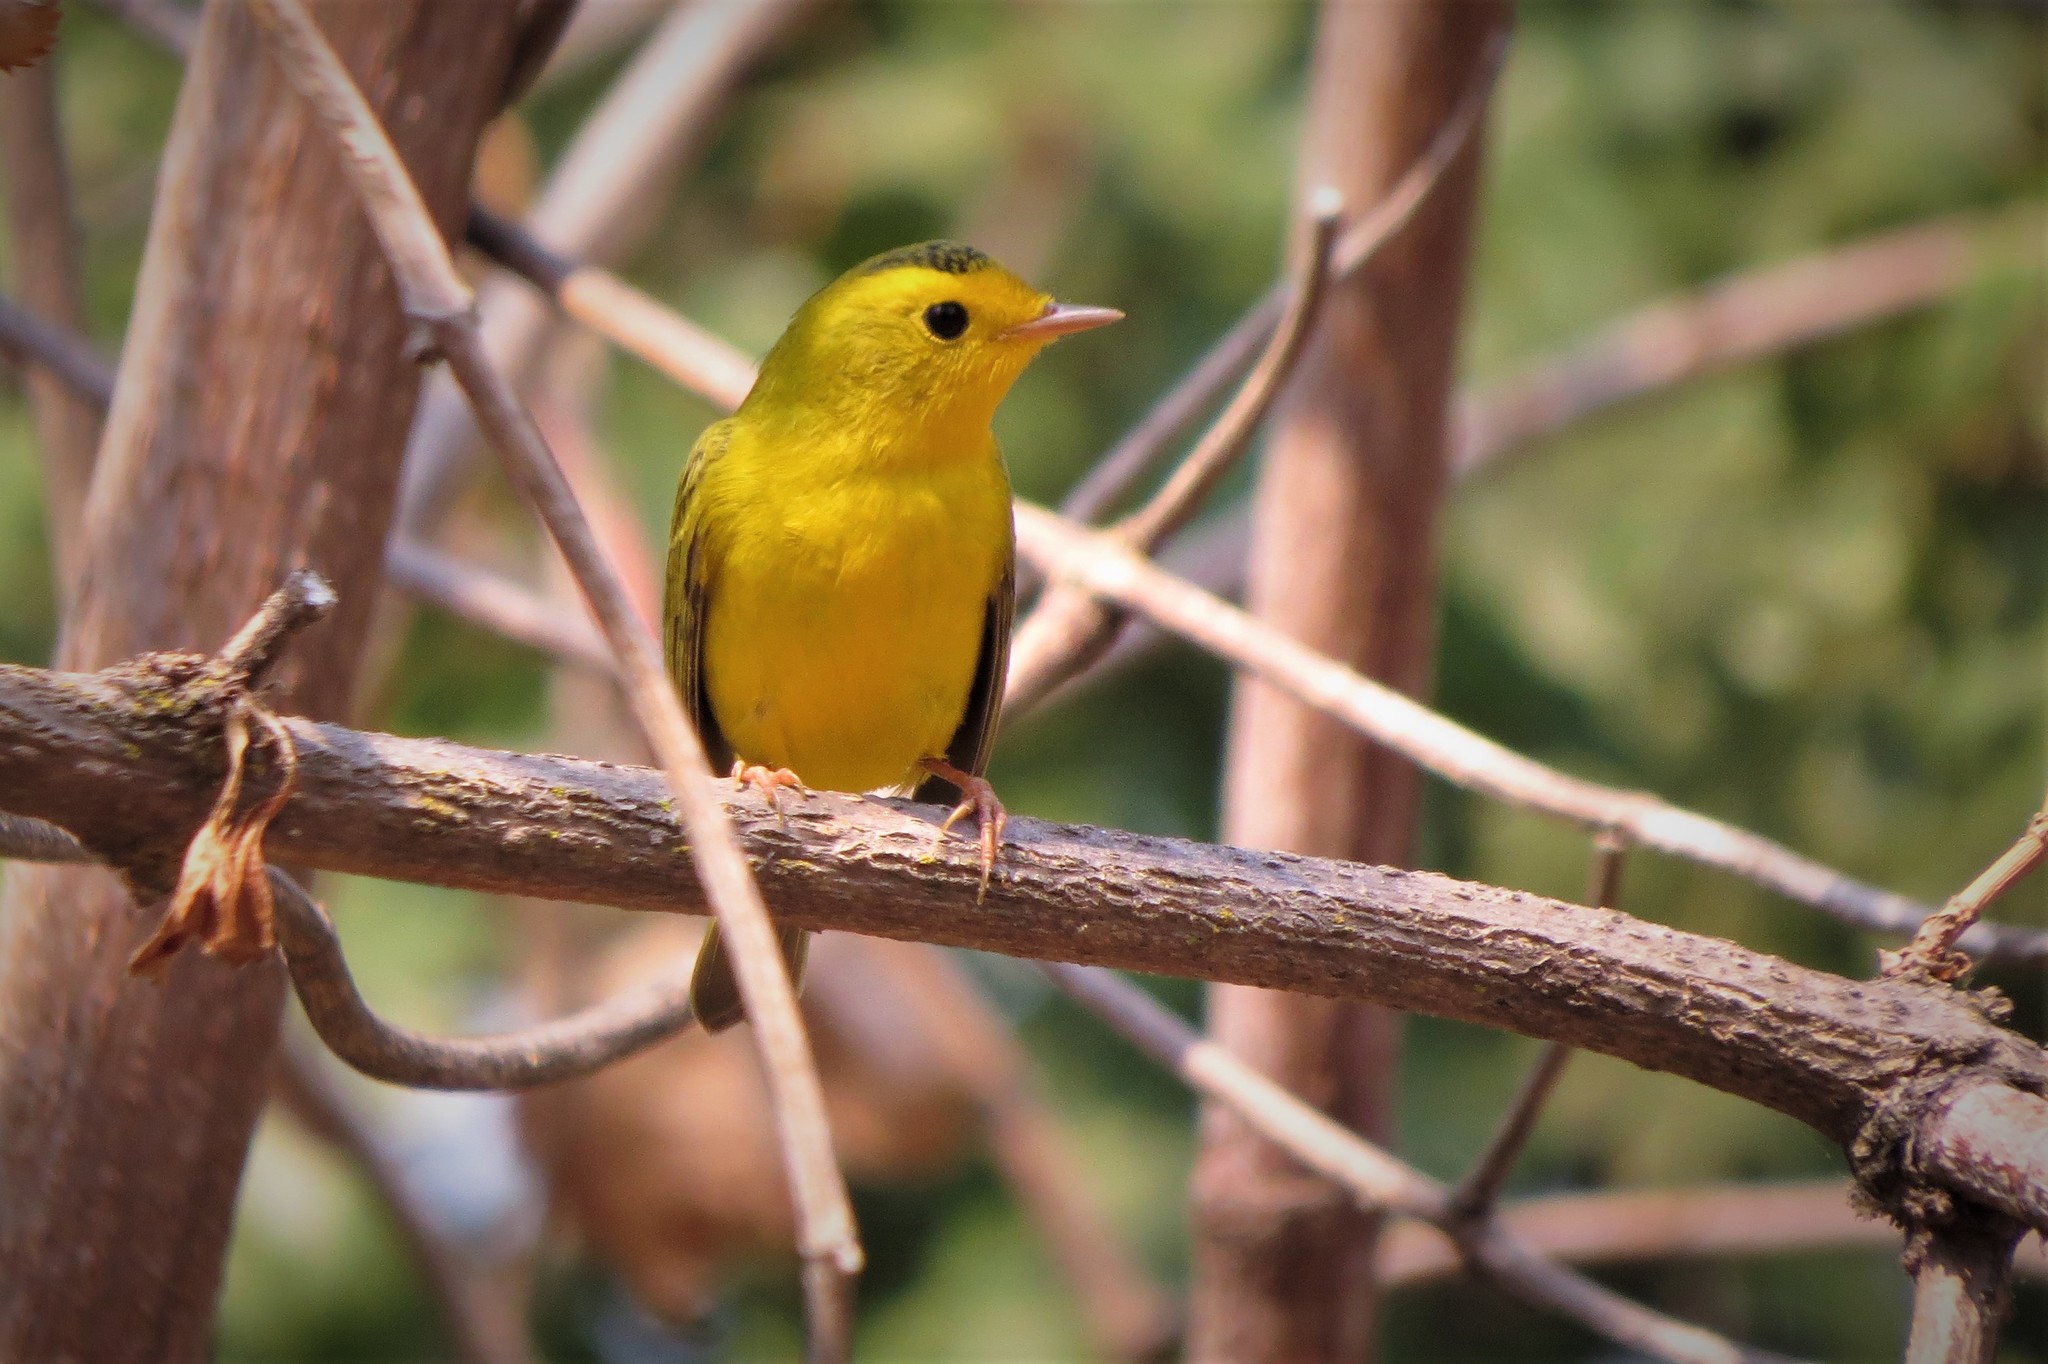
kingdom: Animalia
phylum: Chordata
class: Aves
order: Passeriformes
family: Parulidae
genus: Cardellina
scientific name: Cardellina pusilla
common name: Wilson's warbler
